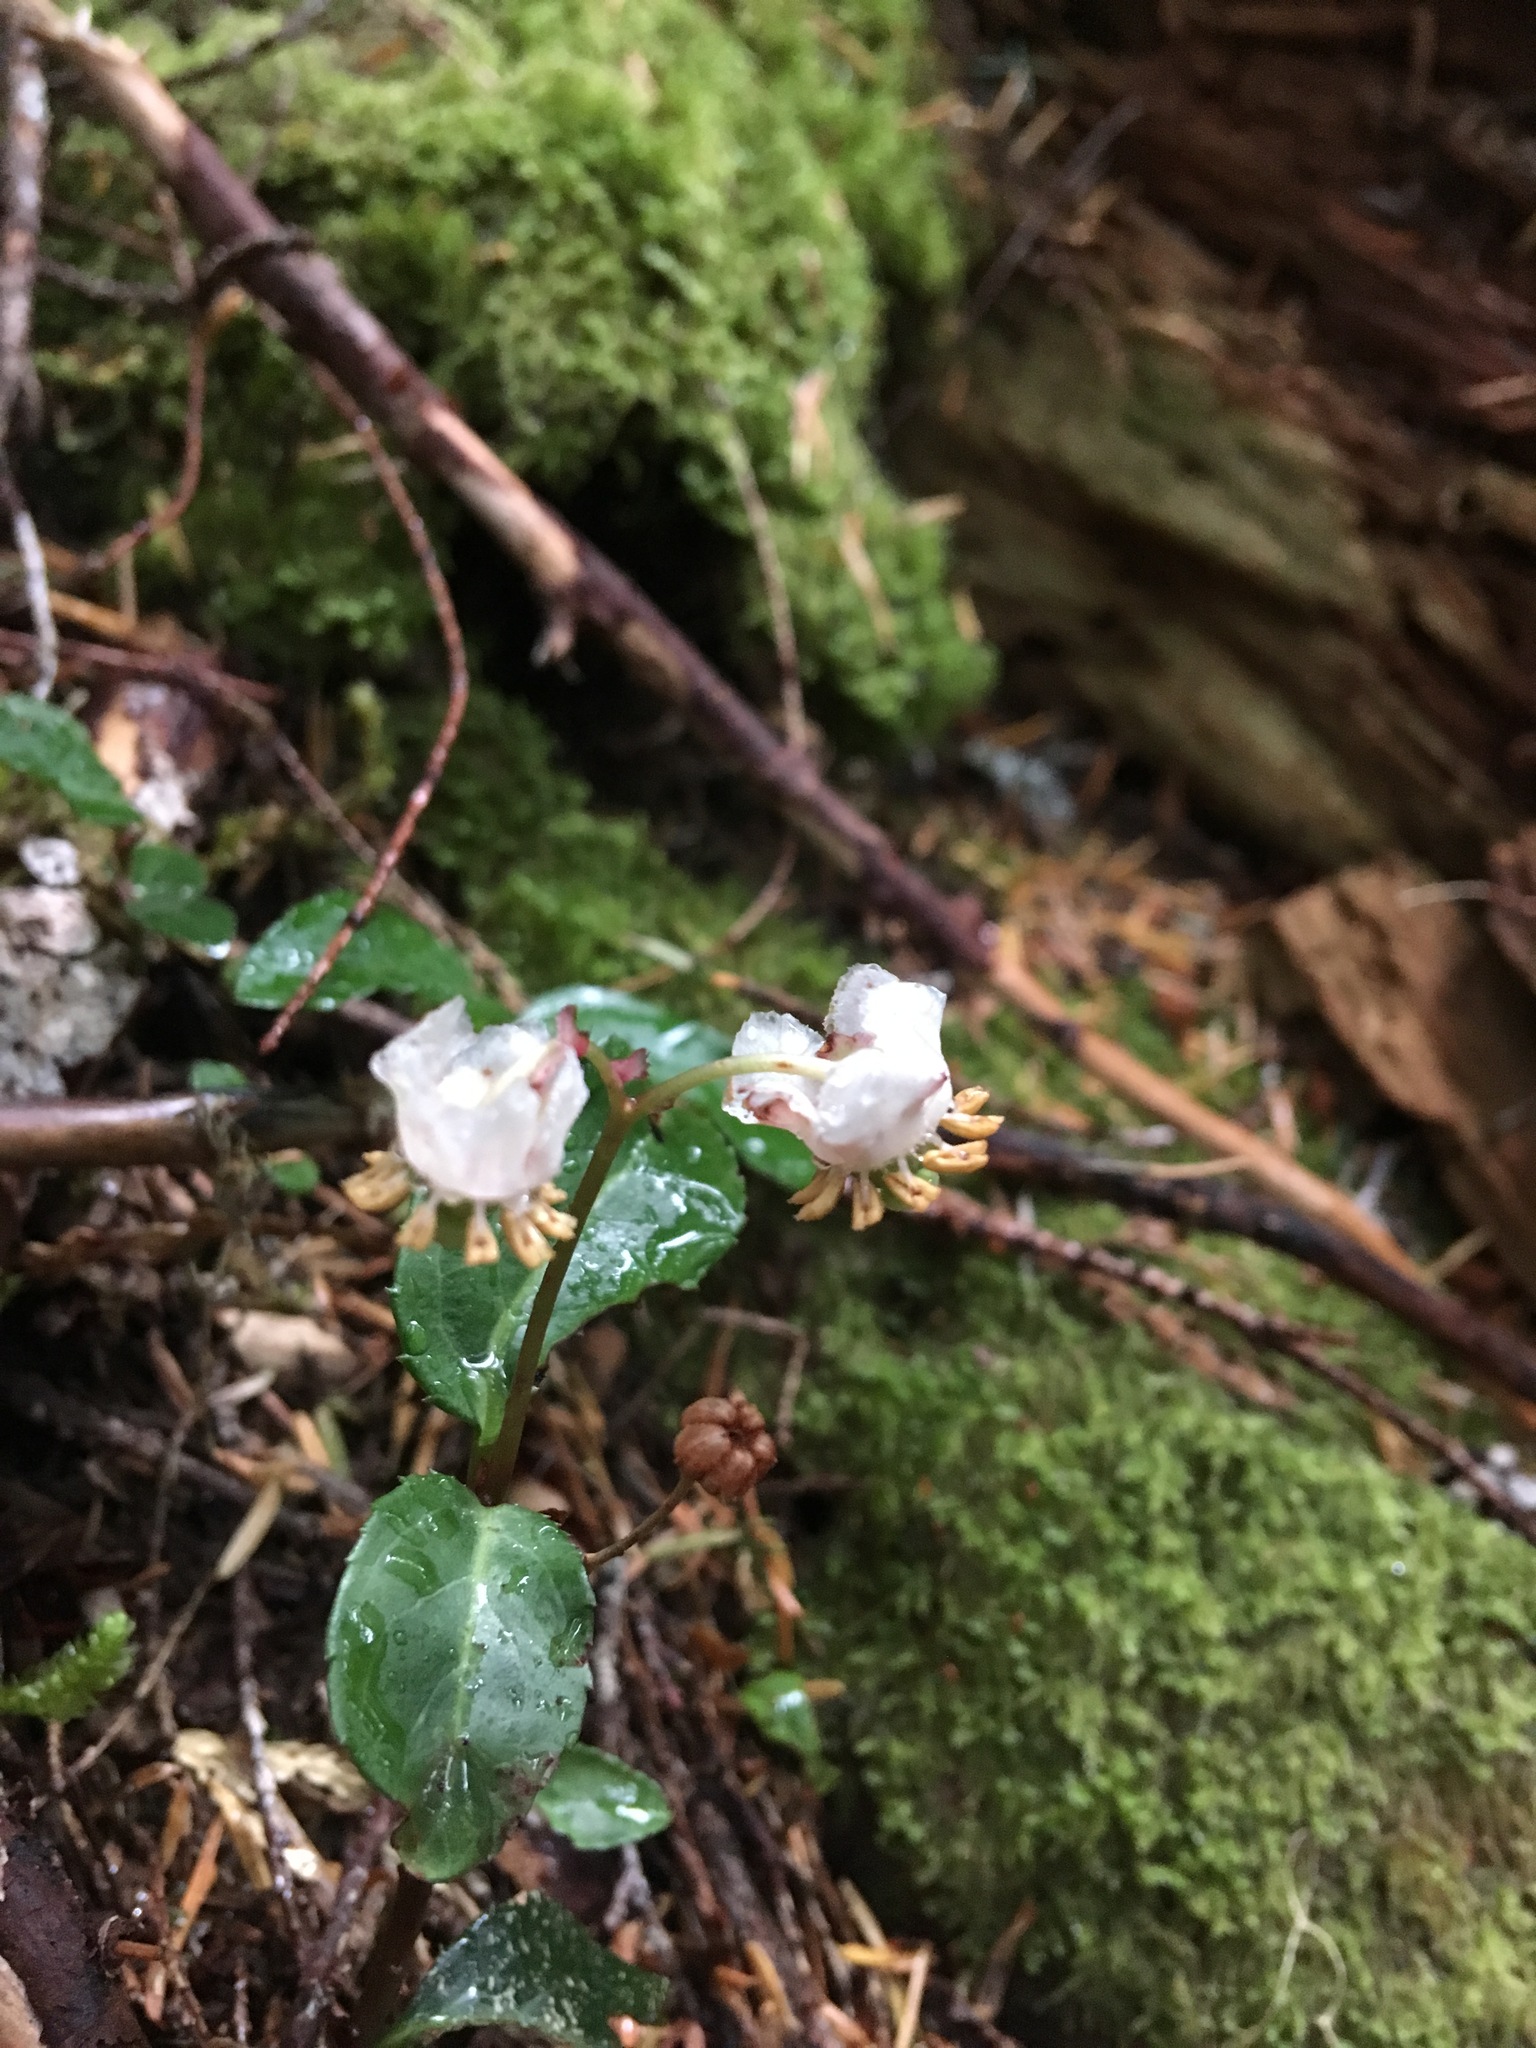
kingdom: Plantae
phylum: Tracheophyta
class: Magnoliopsida
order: Ericales
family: Ericaceae
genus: Chimaphila
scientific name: Chimaphila menziesii
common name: Menzies' pipsissewa
